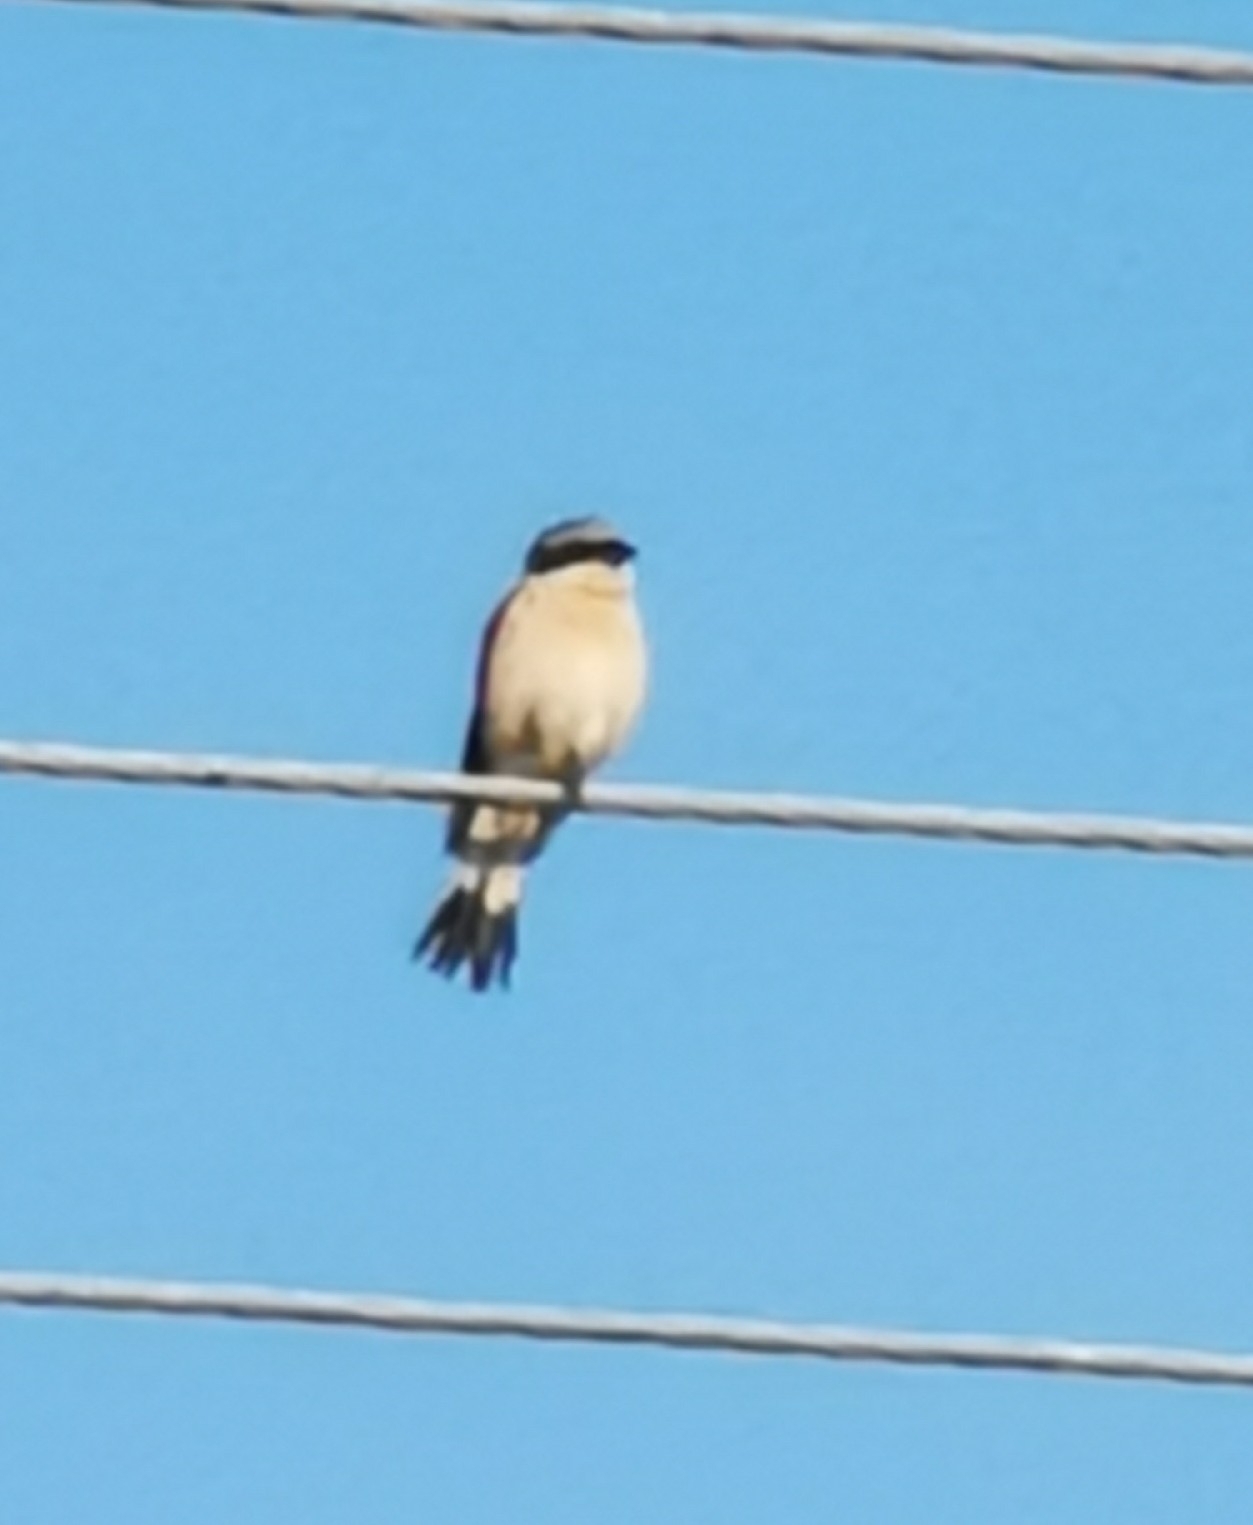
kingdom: Animalia
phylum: Chordata
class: Aves
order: Passeriformes
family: Laniidae
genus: Lanius
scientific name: Lanius collurio
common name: Red-backed shrike
